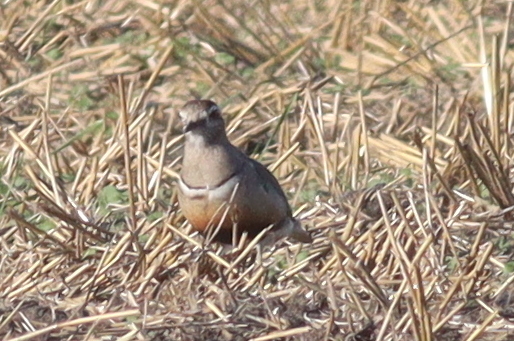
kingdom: Animalia
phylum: Chordata
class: Aves
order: Charadriiformes
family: Charadriidae
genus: Charadrius
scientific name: Charadrius morinellus
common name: Eurasian dotterel
